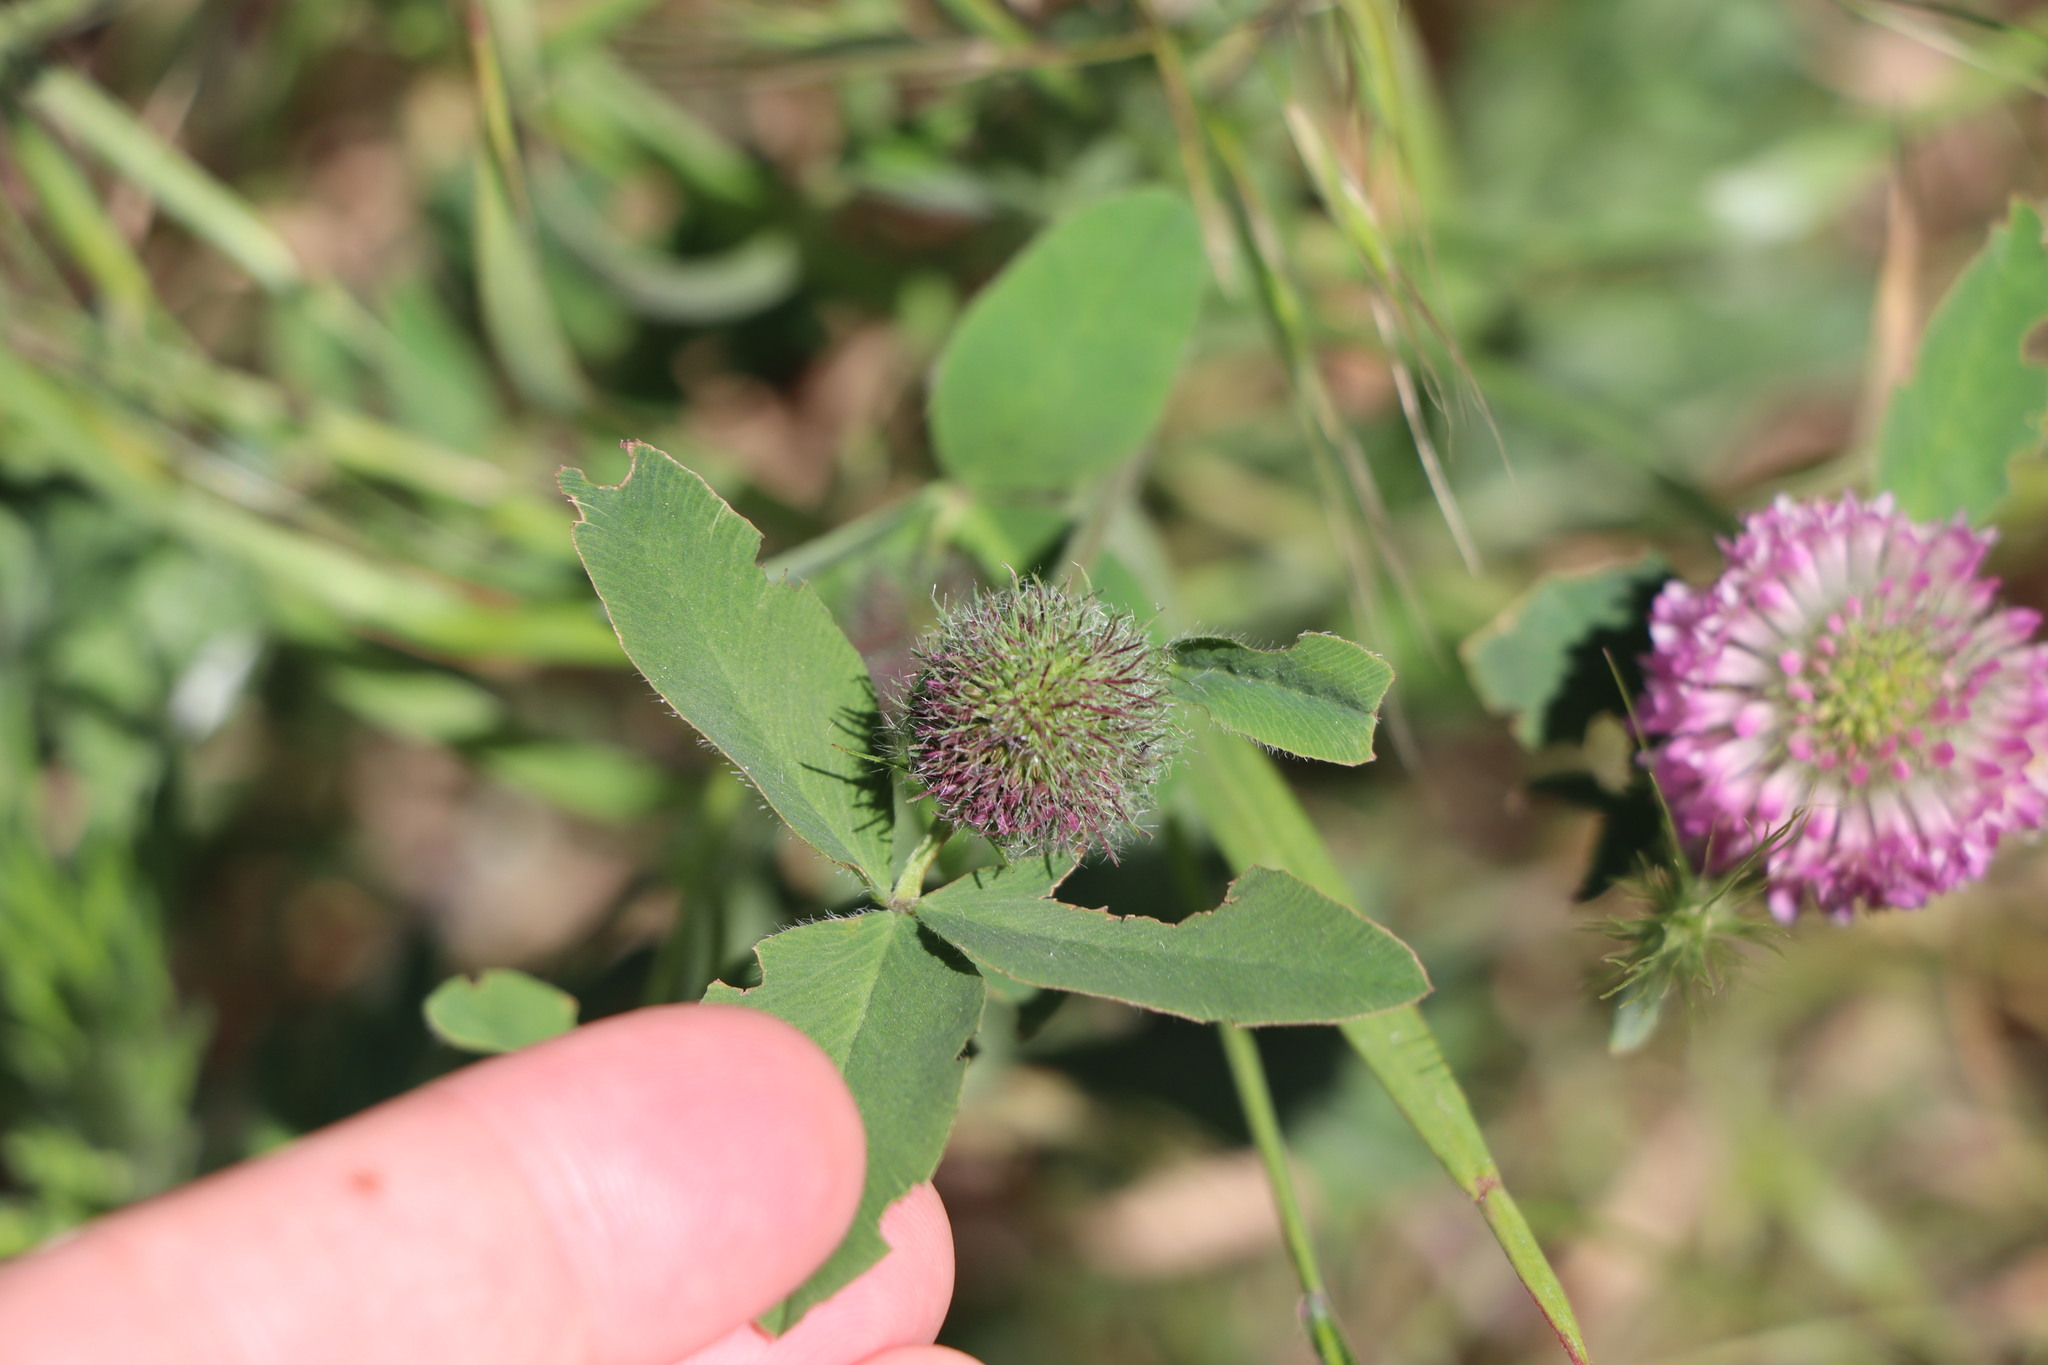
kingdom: Plantae
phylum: Tracheophyta
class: Magnoliopsida
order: Fabales
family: Fabaceae
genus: Trifolium
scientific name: Trifolium pratense
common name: Red clover
